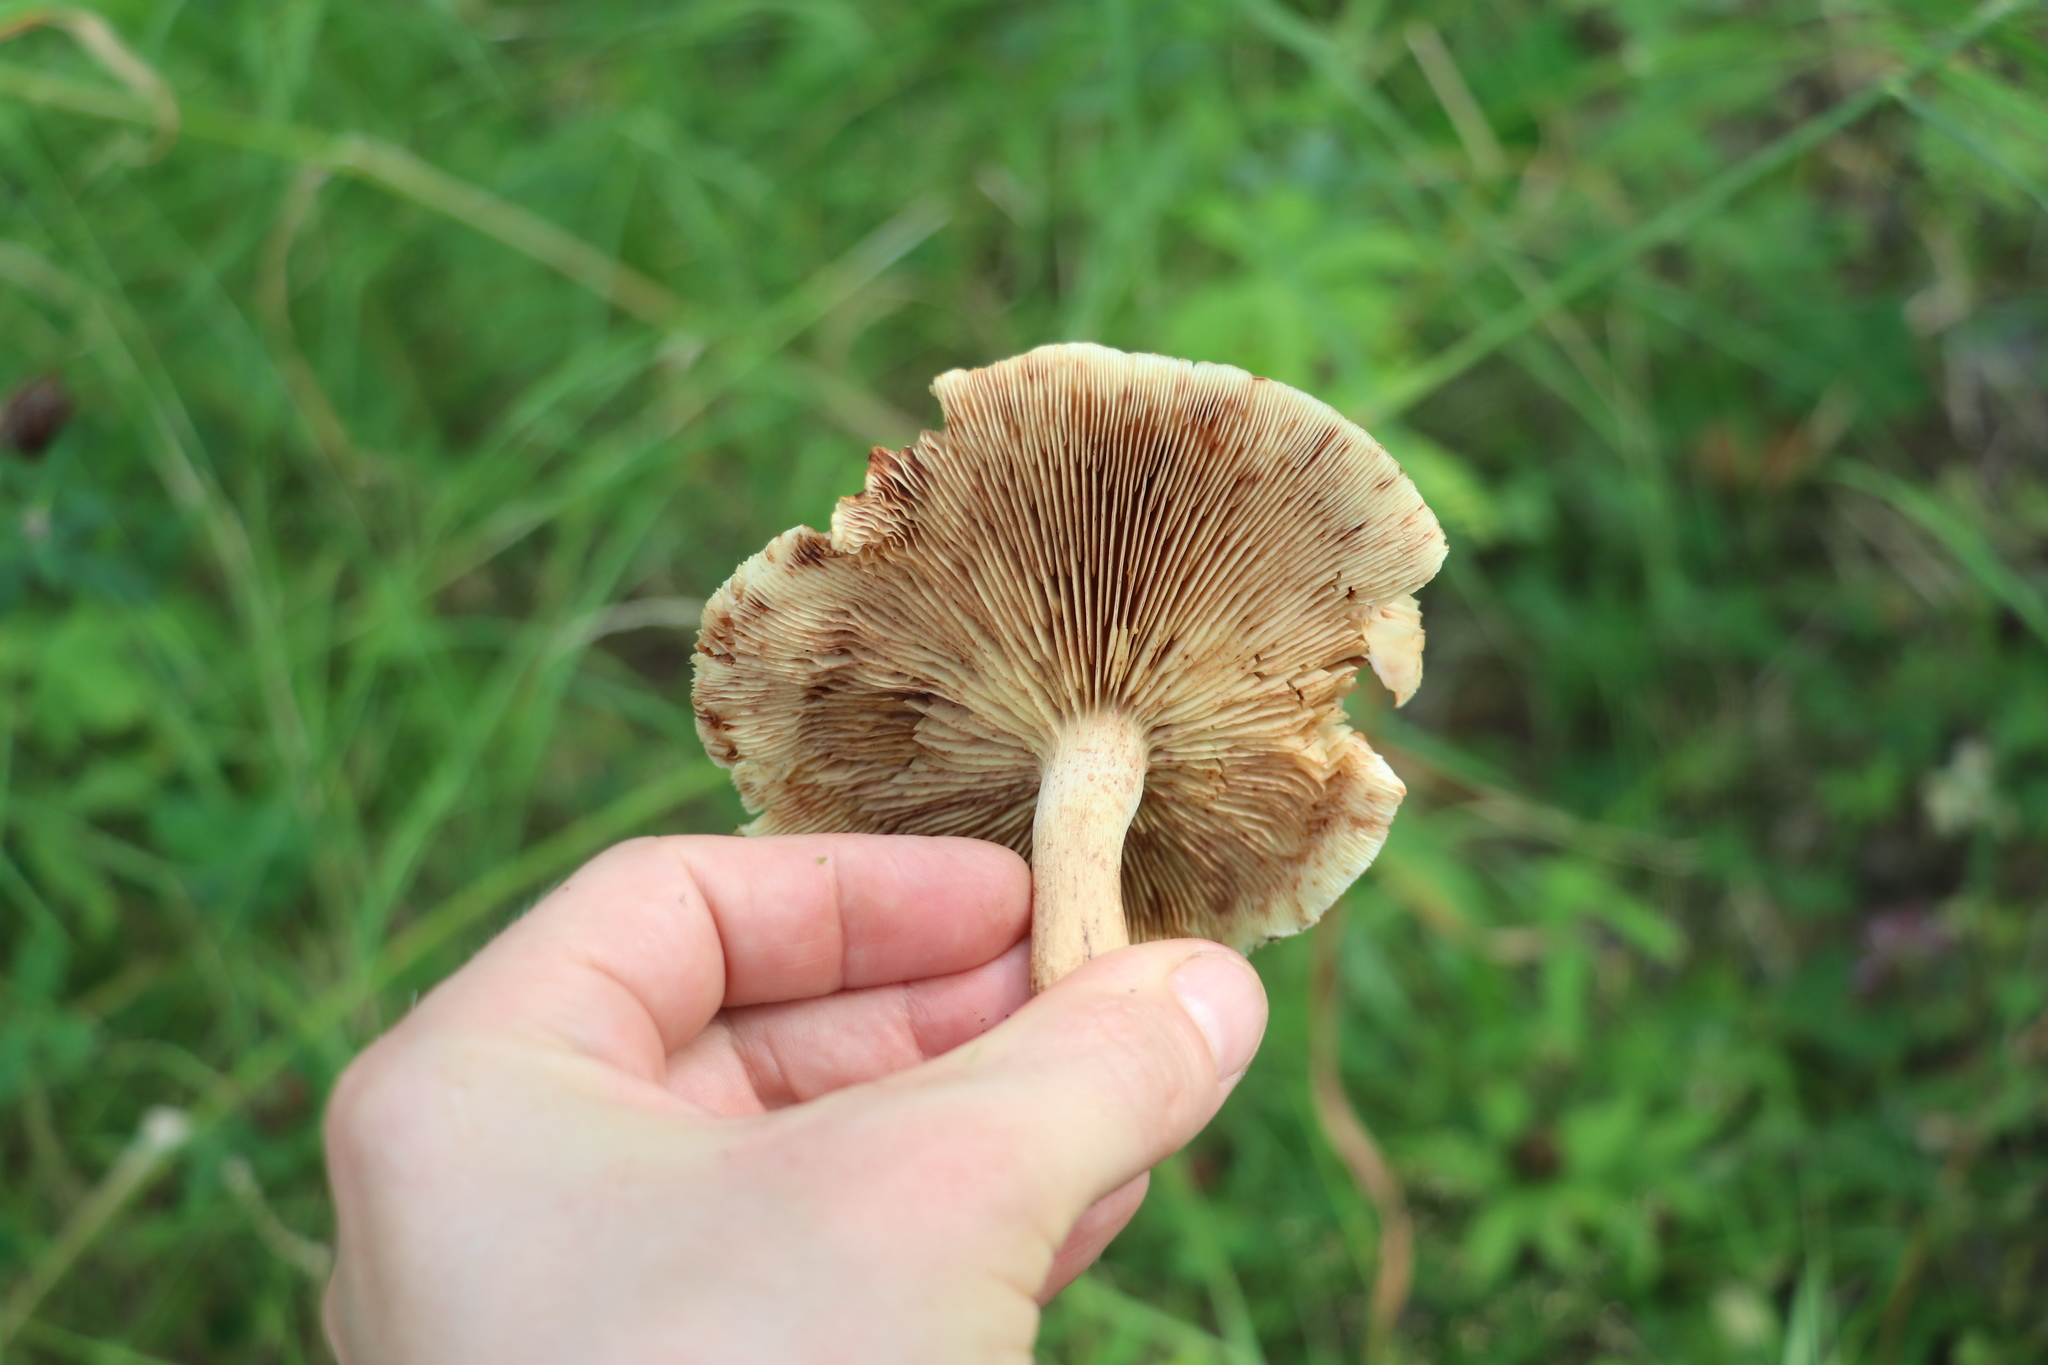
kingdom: Fungi
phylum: Basidiomycota
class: Agaricomycetes
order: Agaricales
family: Tricholomataceae
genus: Tricholoma
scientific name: Tricholoma fulvum
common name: Birch knight
